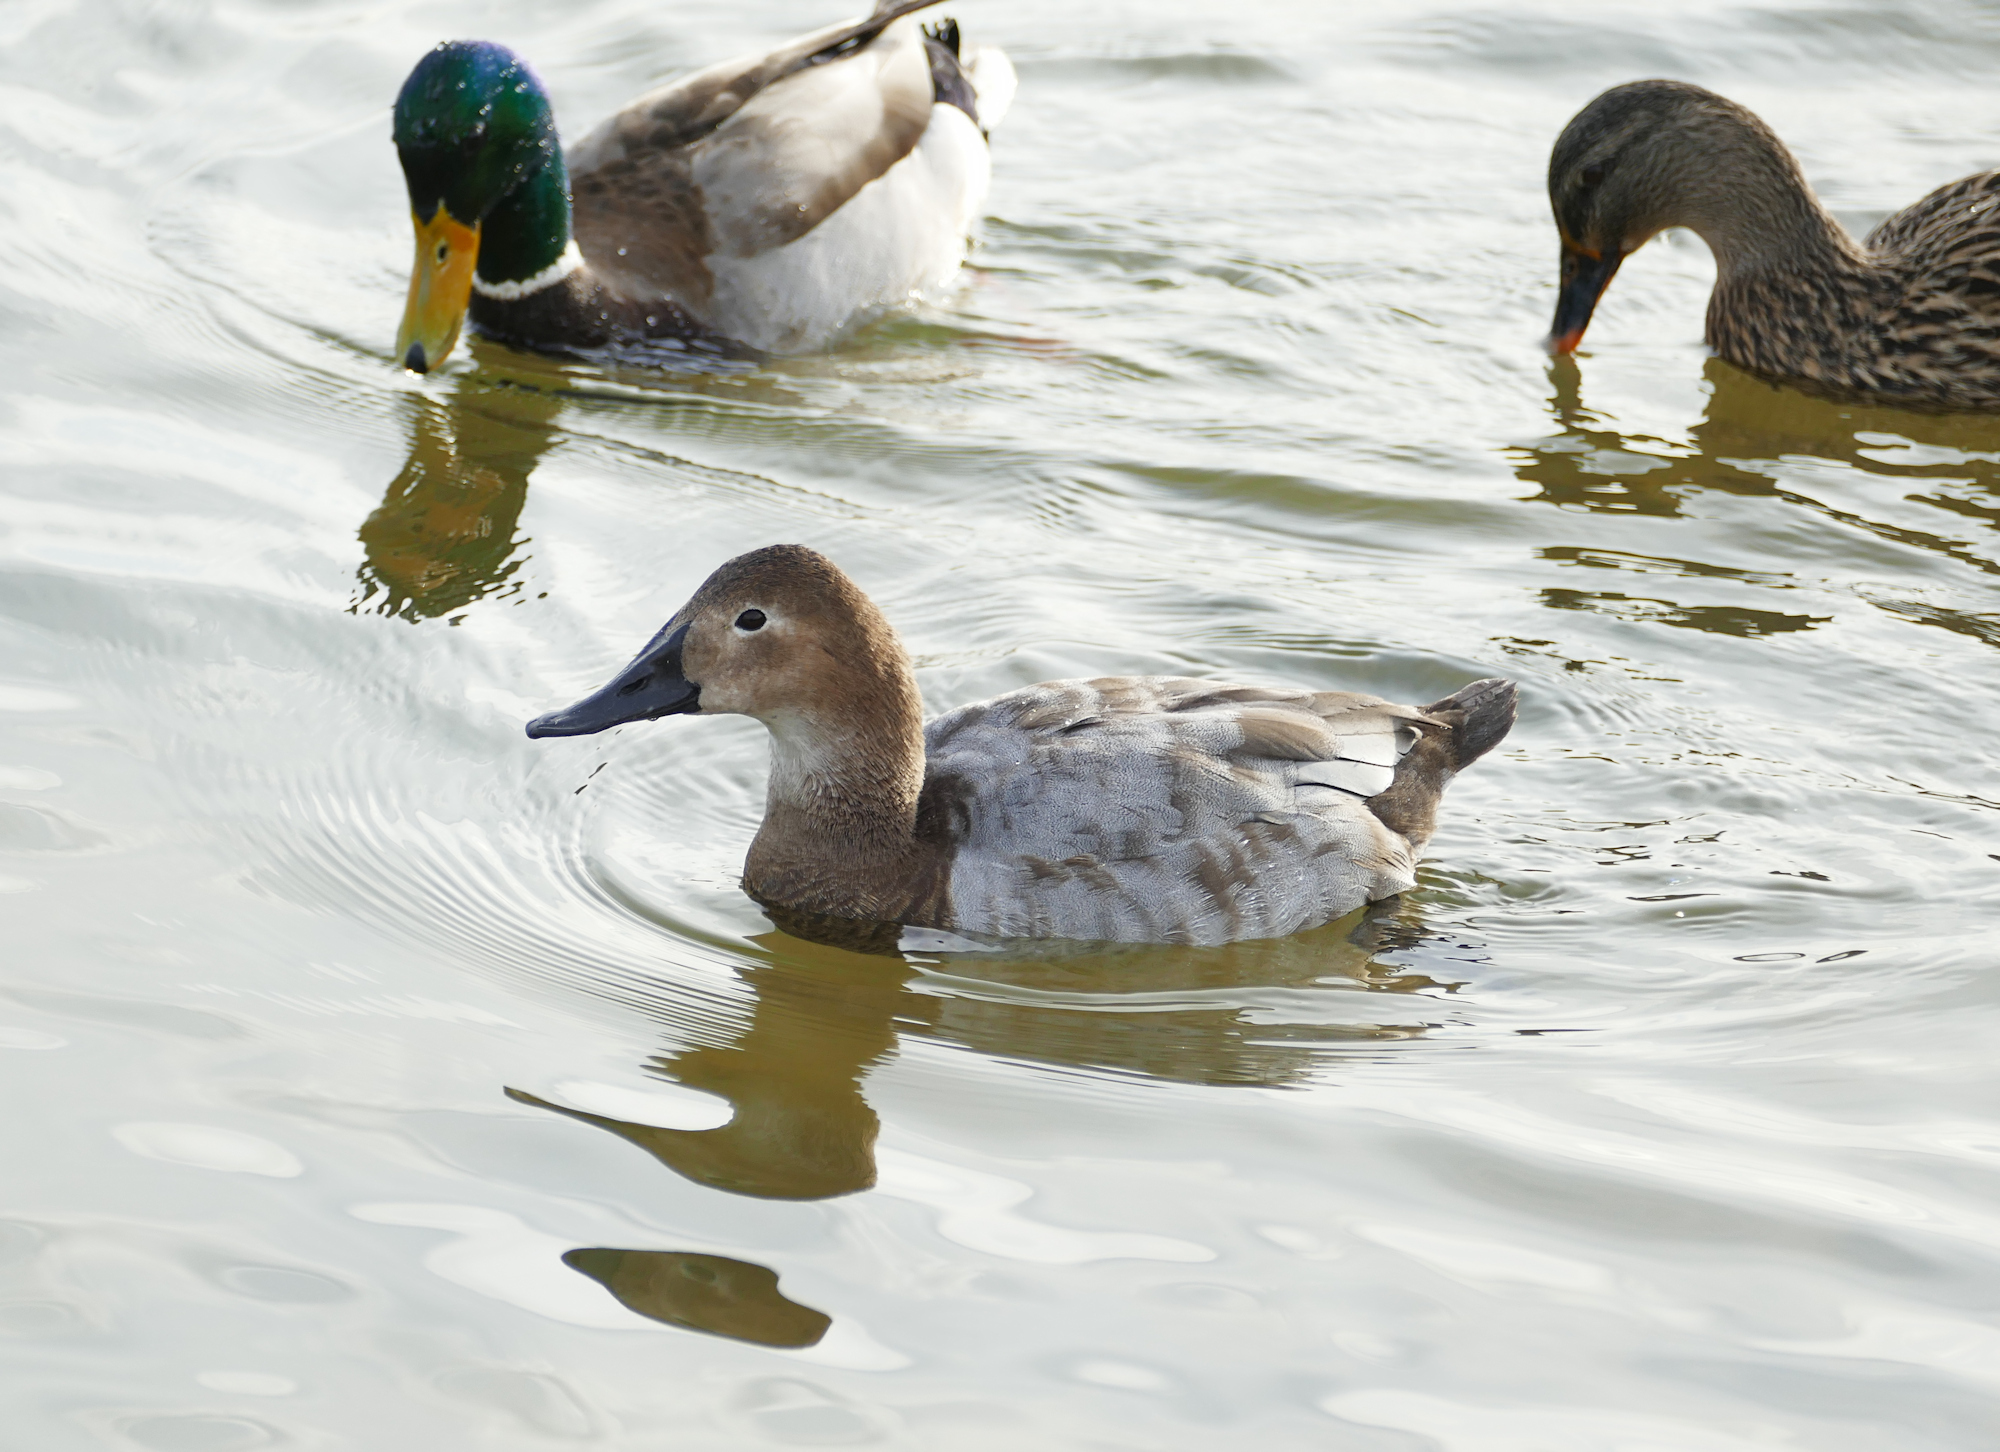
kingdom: Animalia
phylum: Chordata
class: Aves
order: Anseriformes
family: Anatidae
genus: Aythya
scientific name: Aythya valisineria
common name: Canvasback
